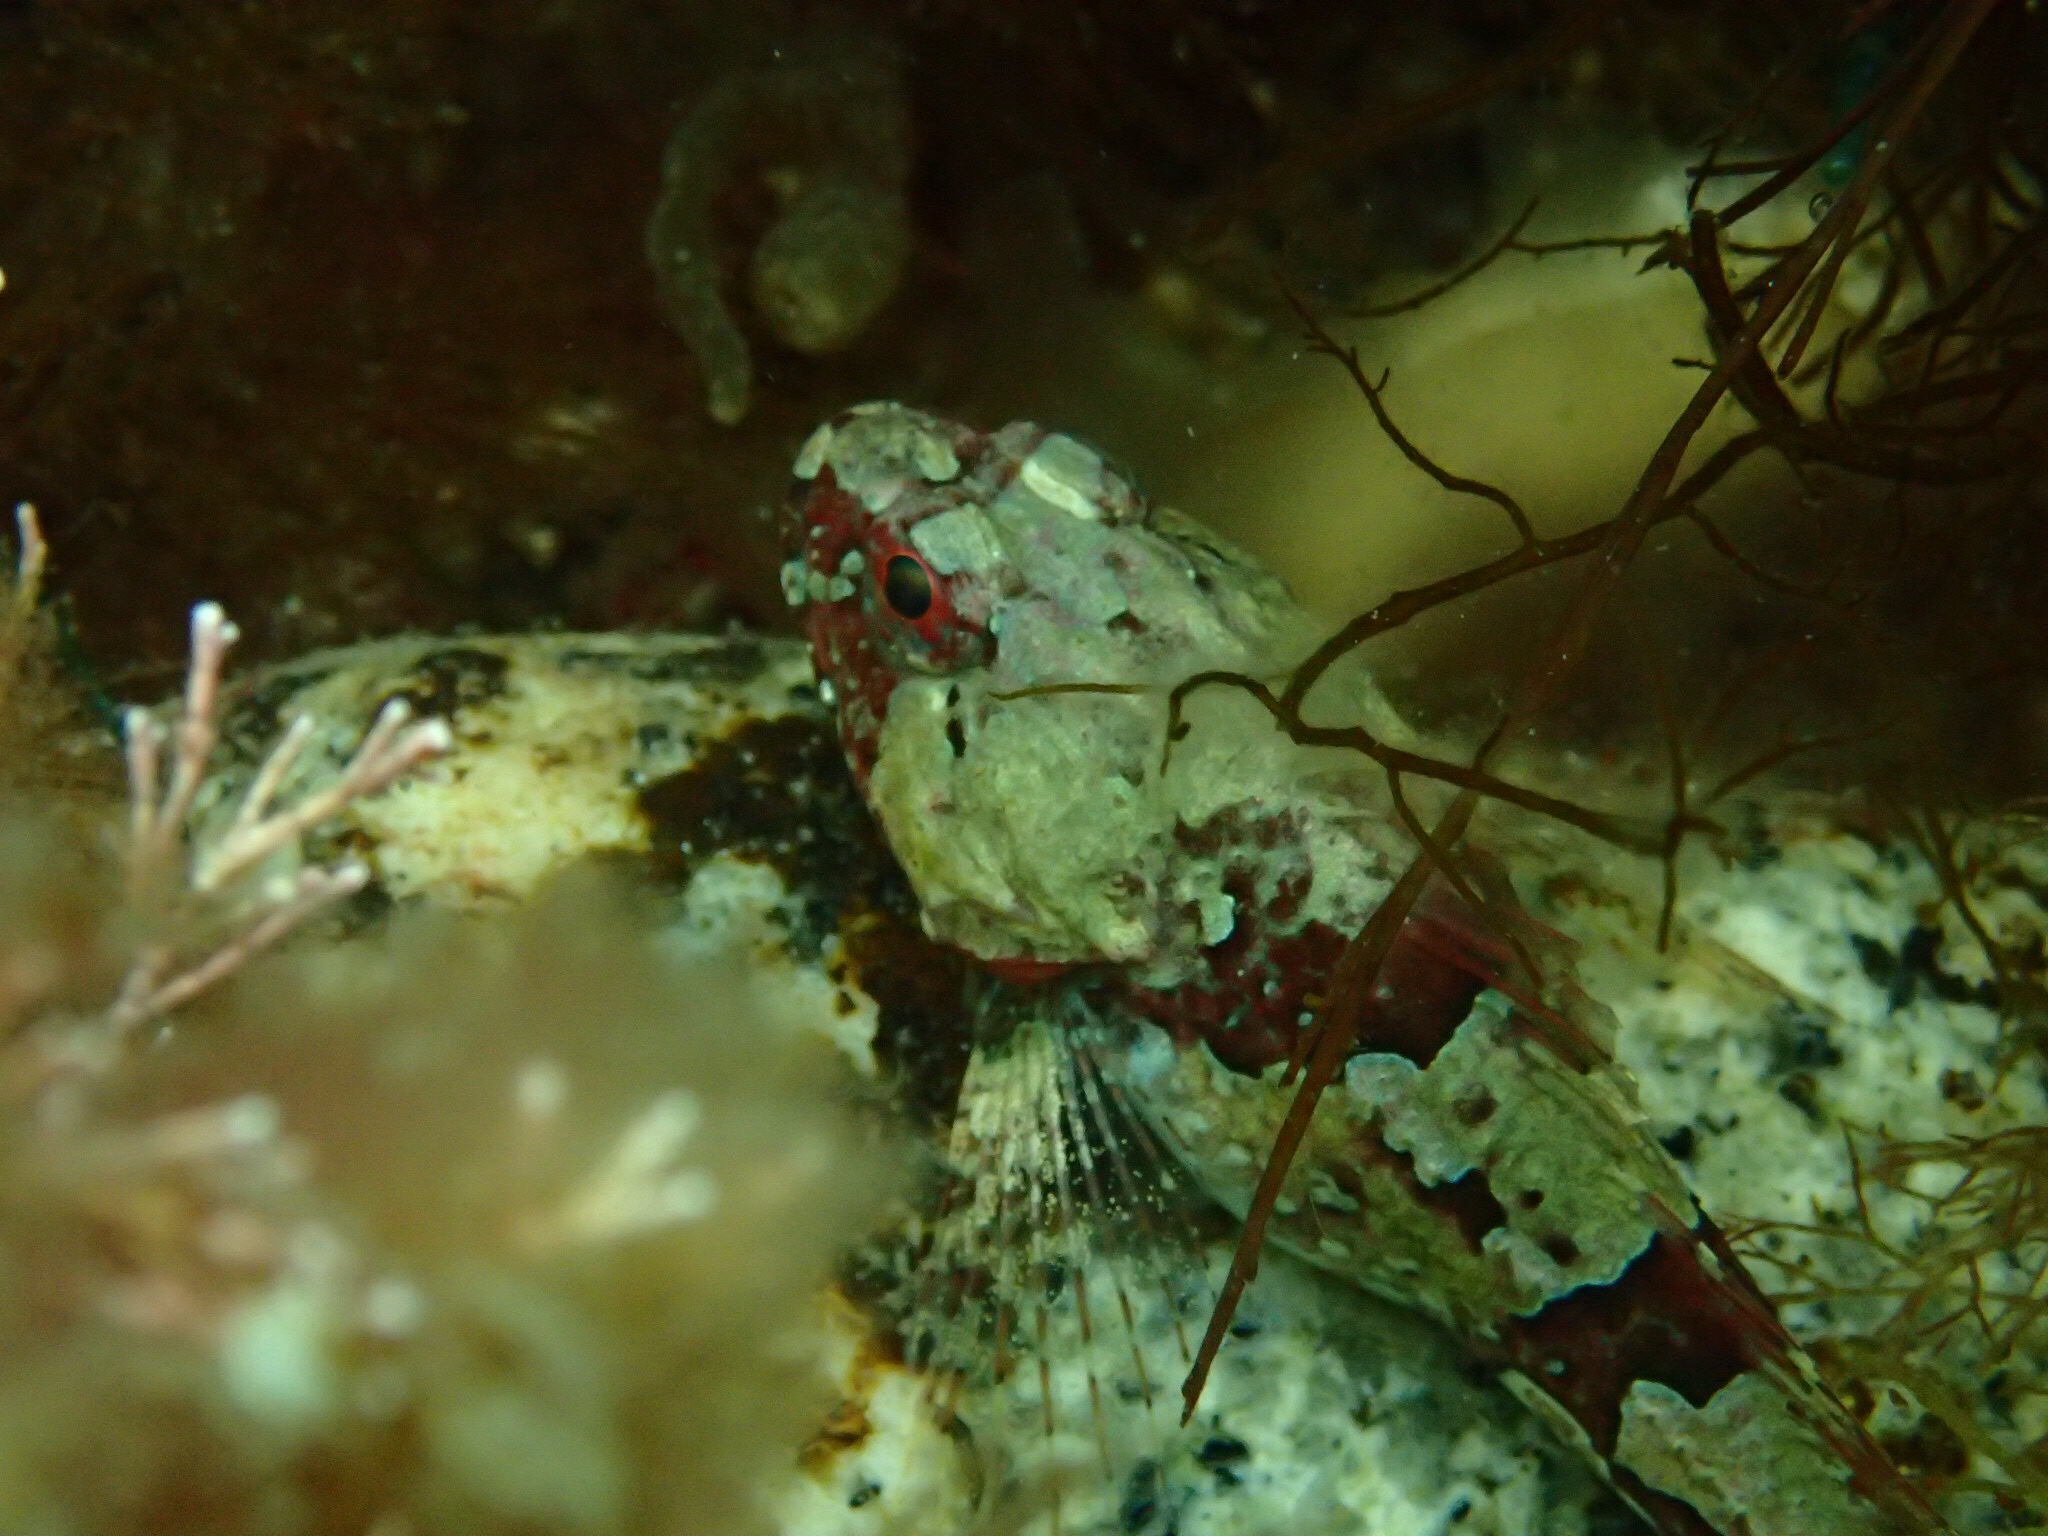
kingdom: Animalia
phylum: Chordata
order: Scorpaeniformes
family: Cottidae
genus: Myoxocephalus
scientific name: Myoxocephalus scorpius
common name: Shorthorn sculpin
